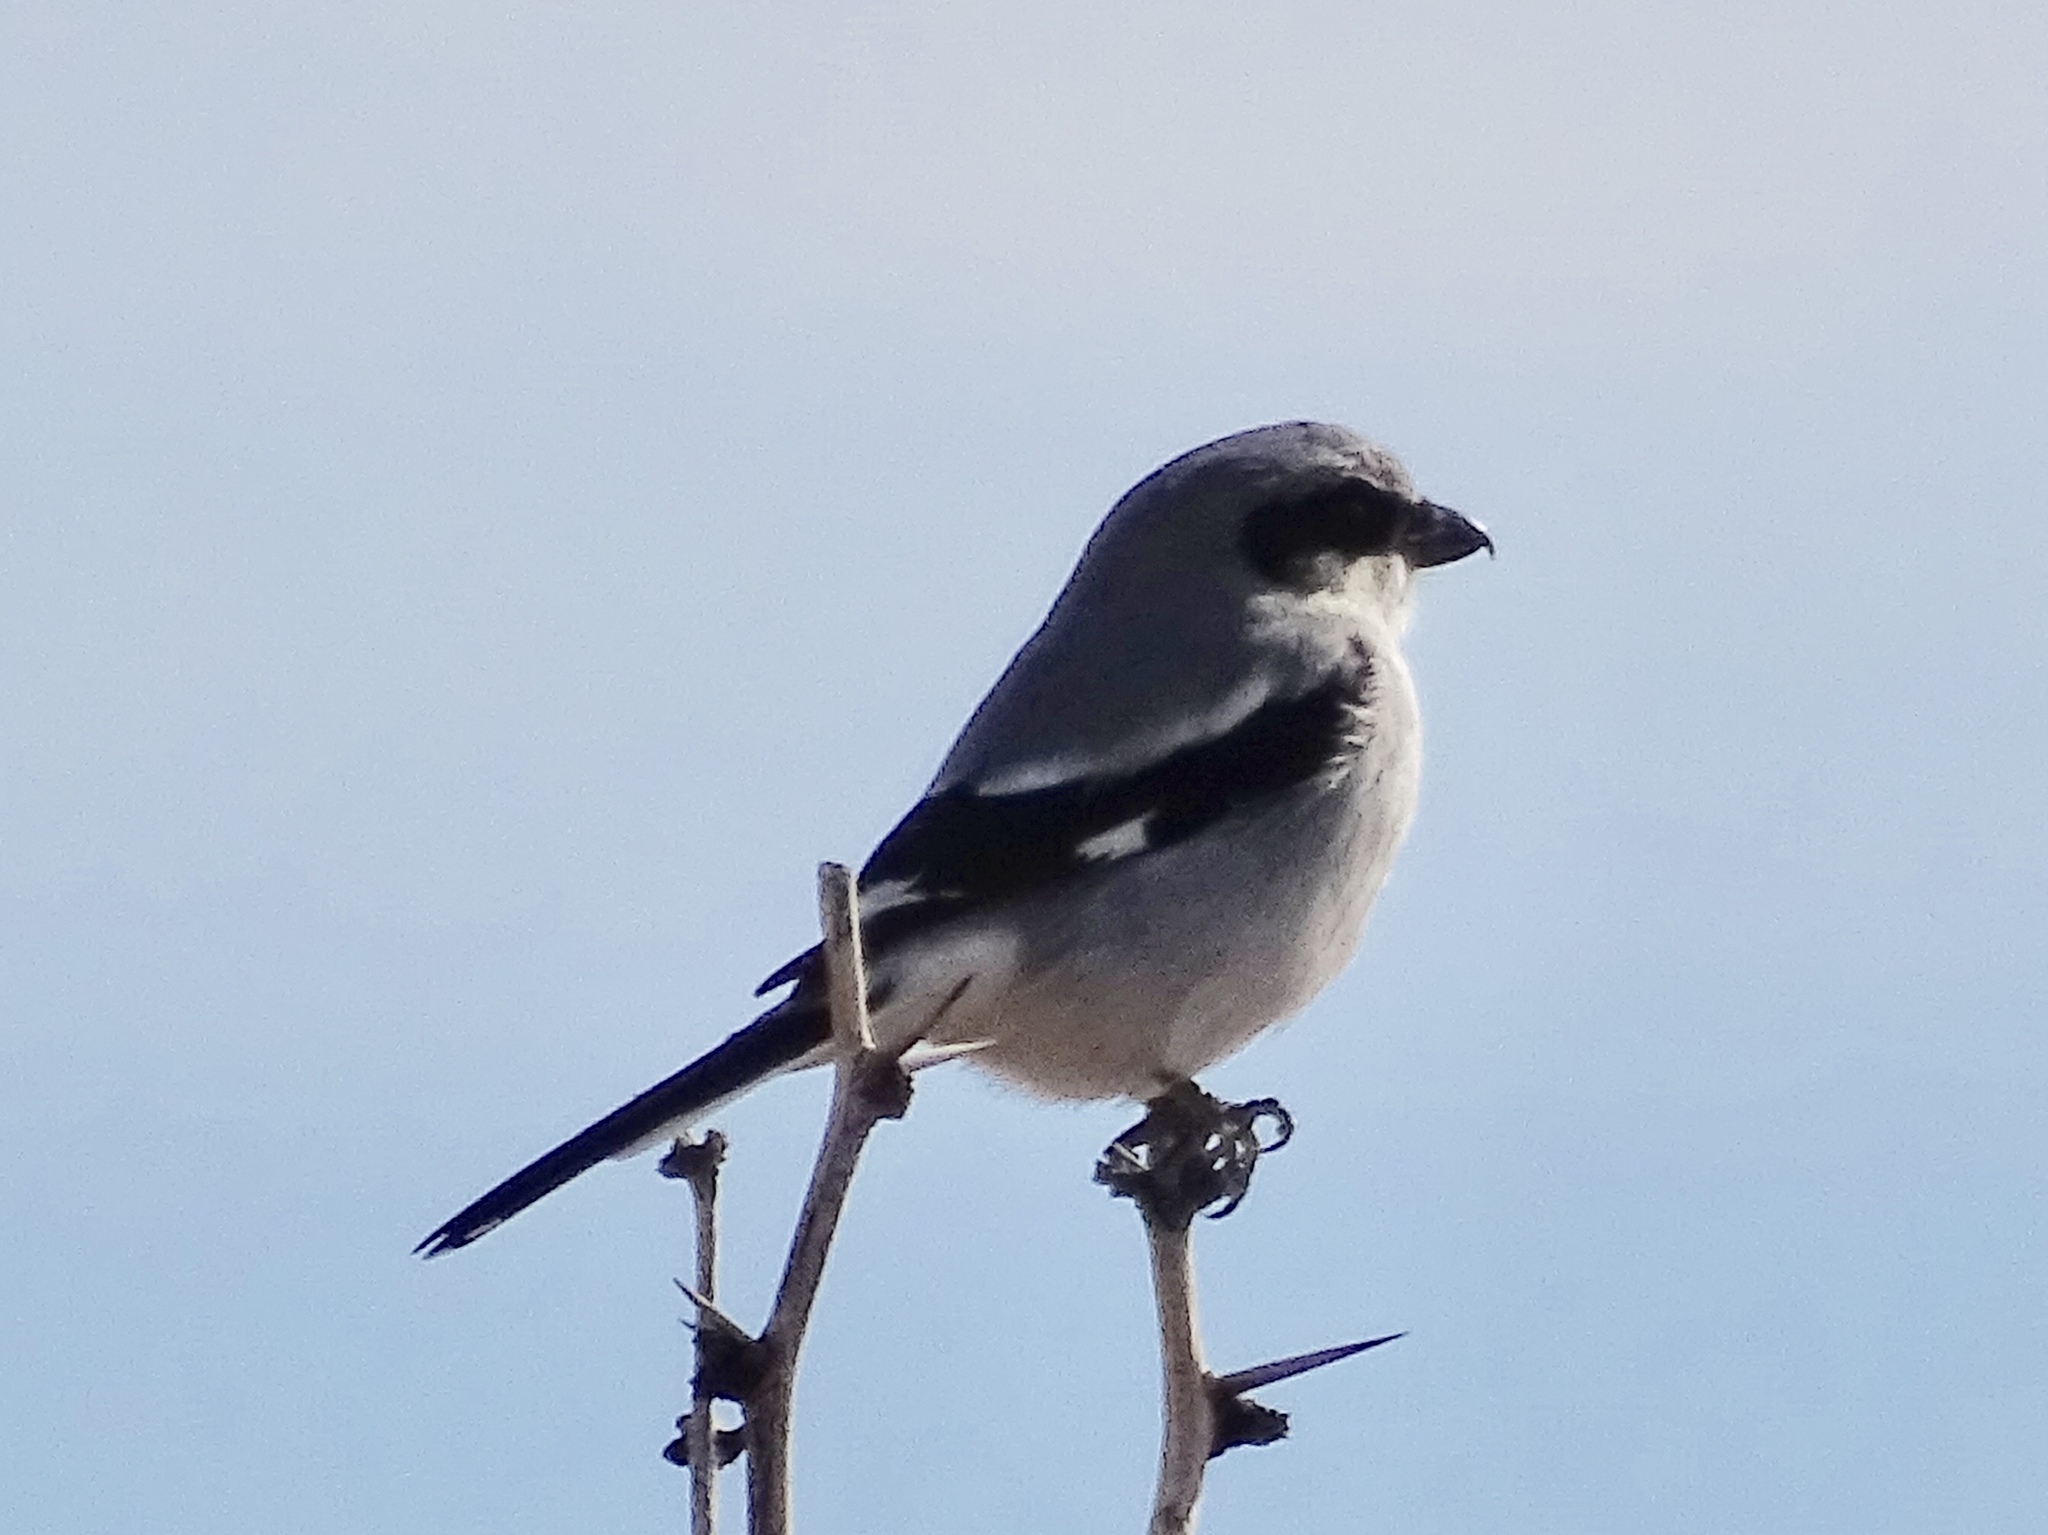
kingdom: Animalia
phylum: Chordata
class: Aves
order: Passeriformes
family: Laniidae
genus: Lanius
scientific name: Lanius ludovicianus
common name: Loggerhead shrike
